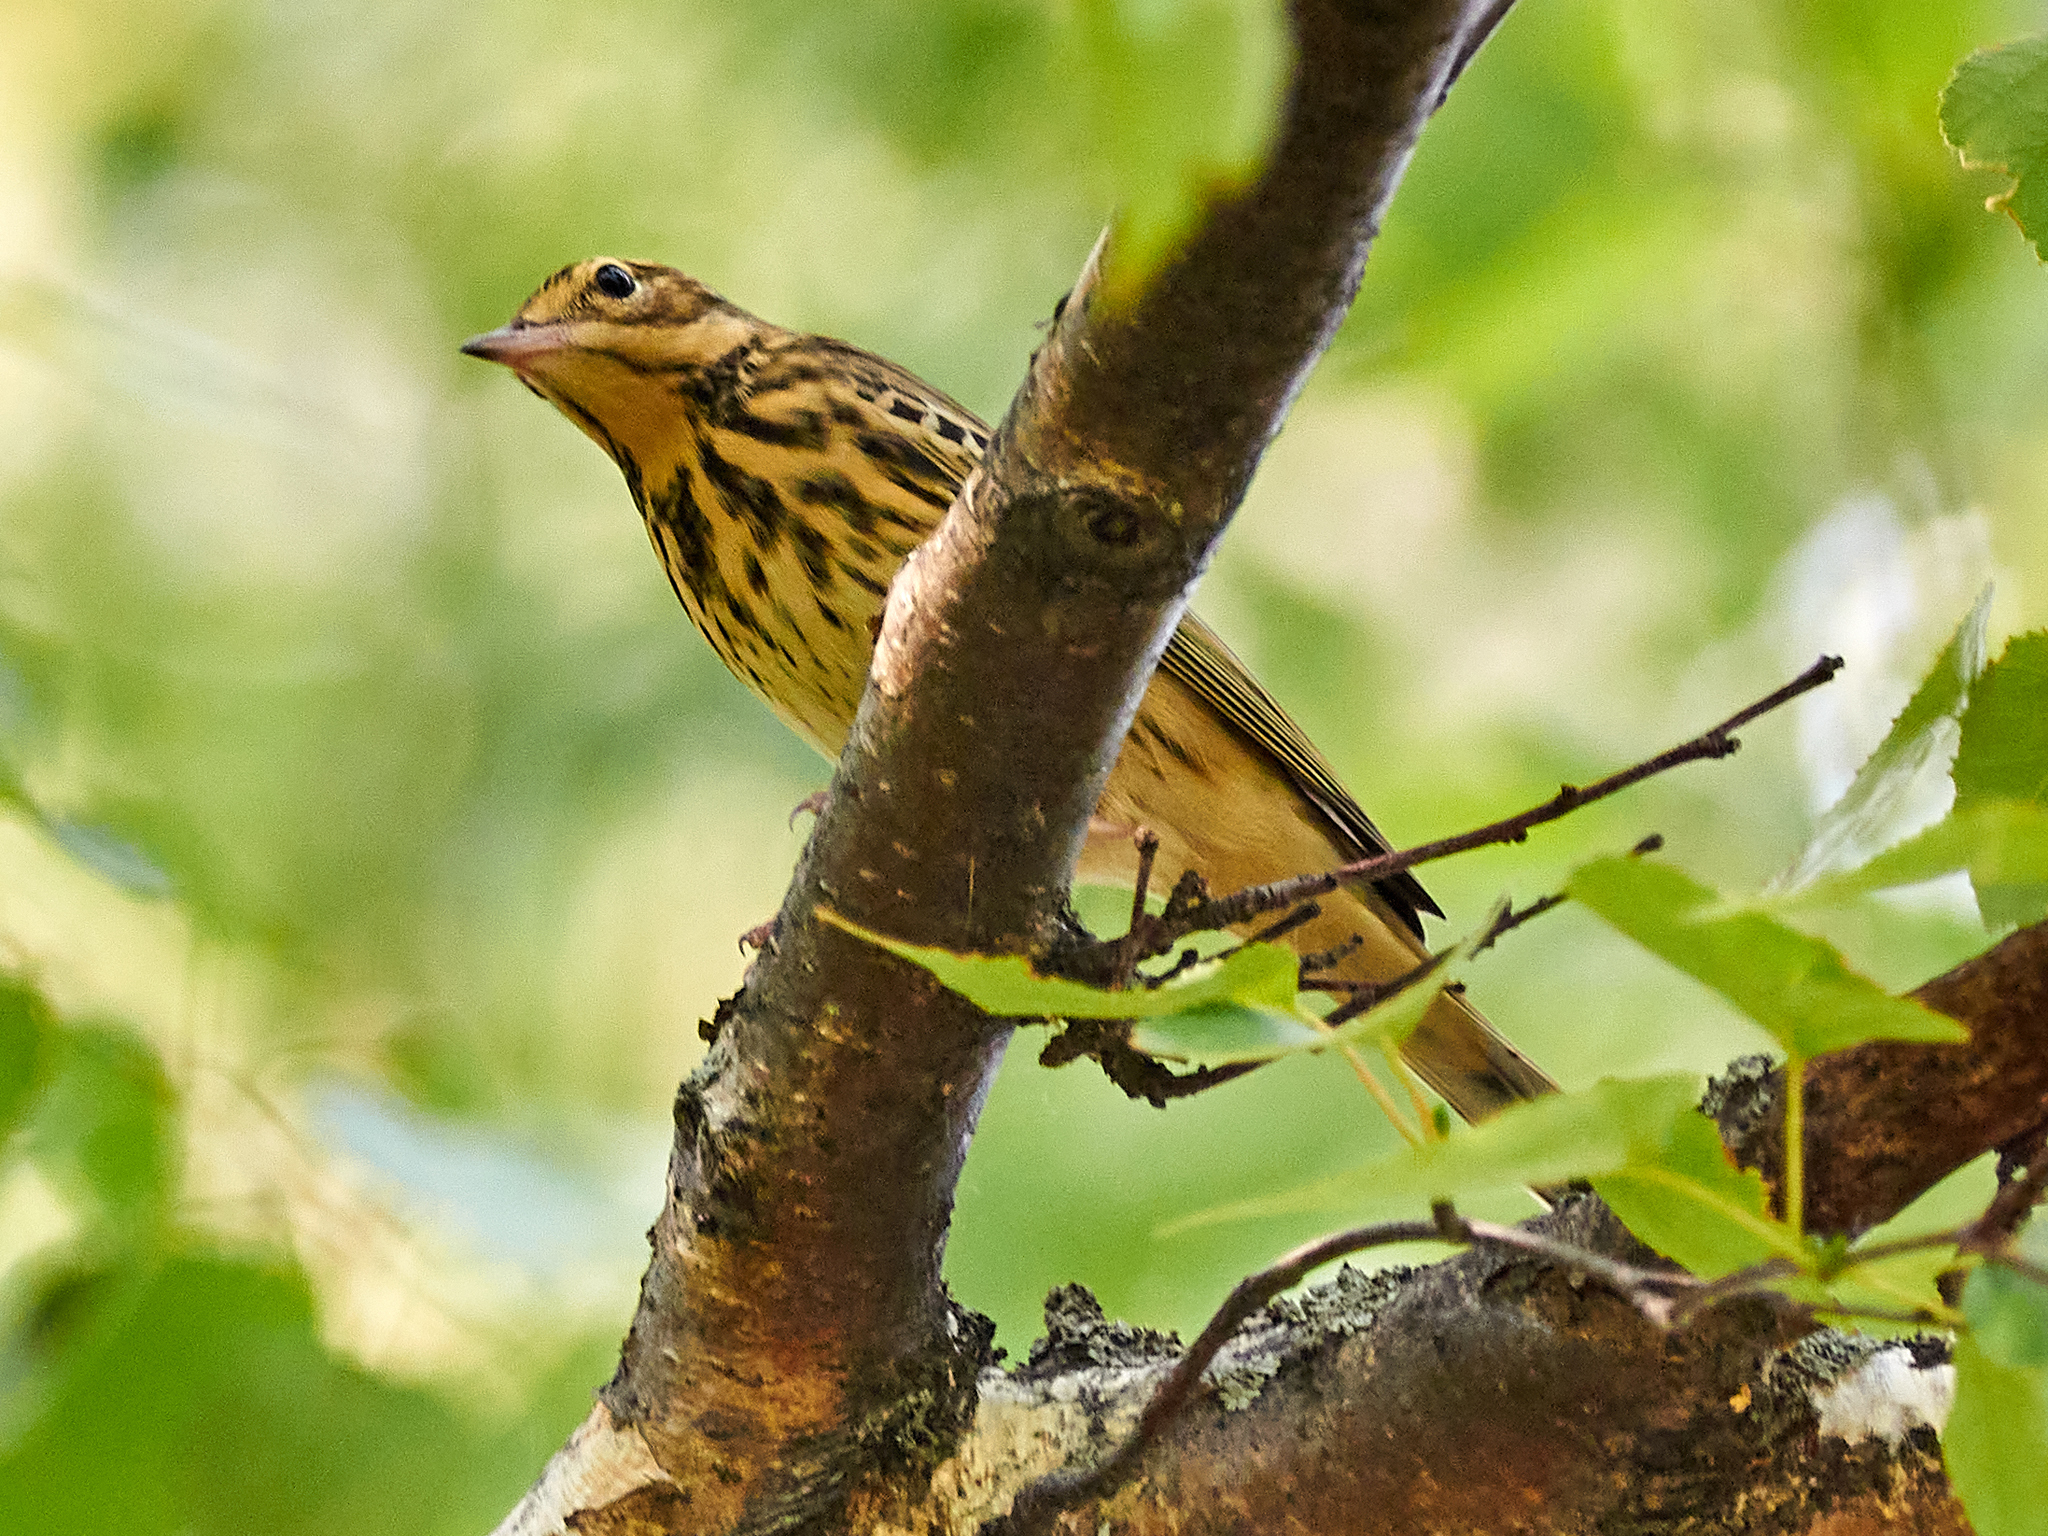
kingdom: Animalia
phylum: Chordata
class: Aves
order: Passeriformes
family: Motacillidae
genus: Anthus
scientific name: Anthus trivialis
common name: Tree pipit
